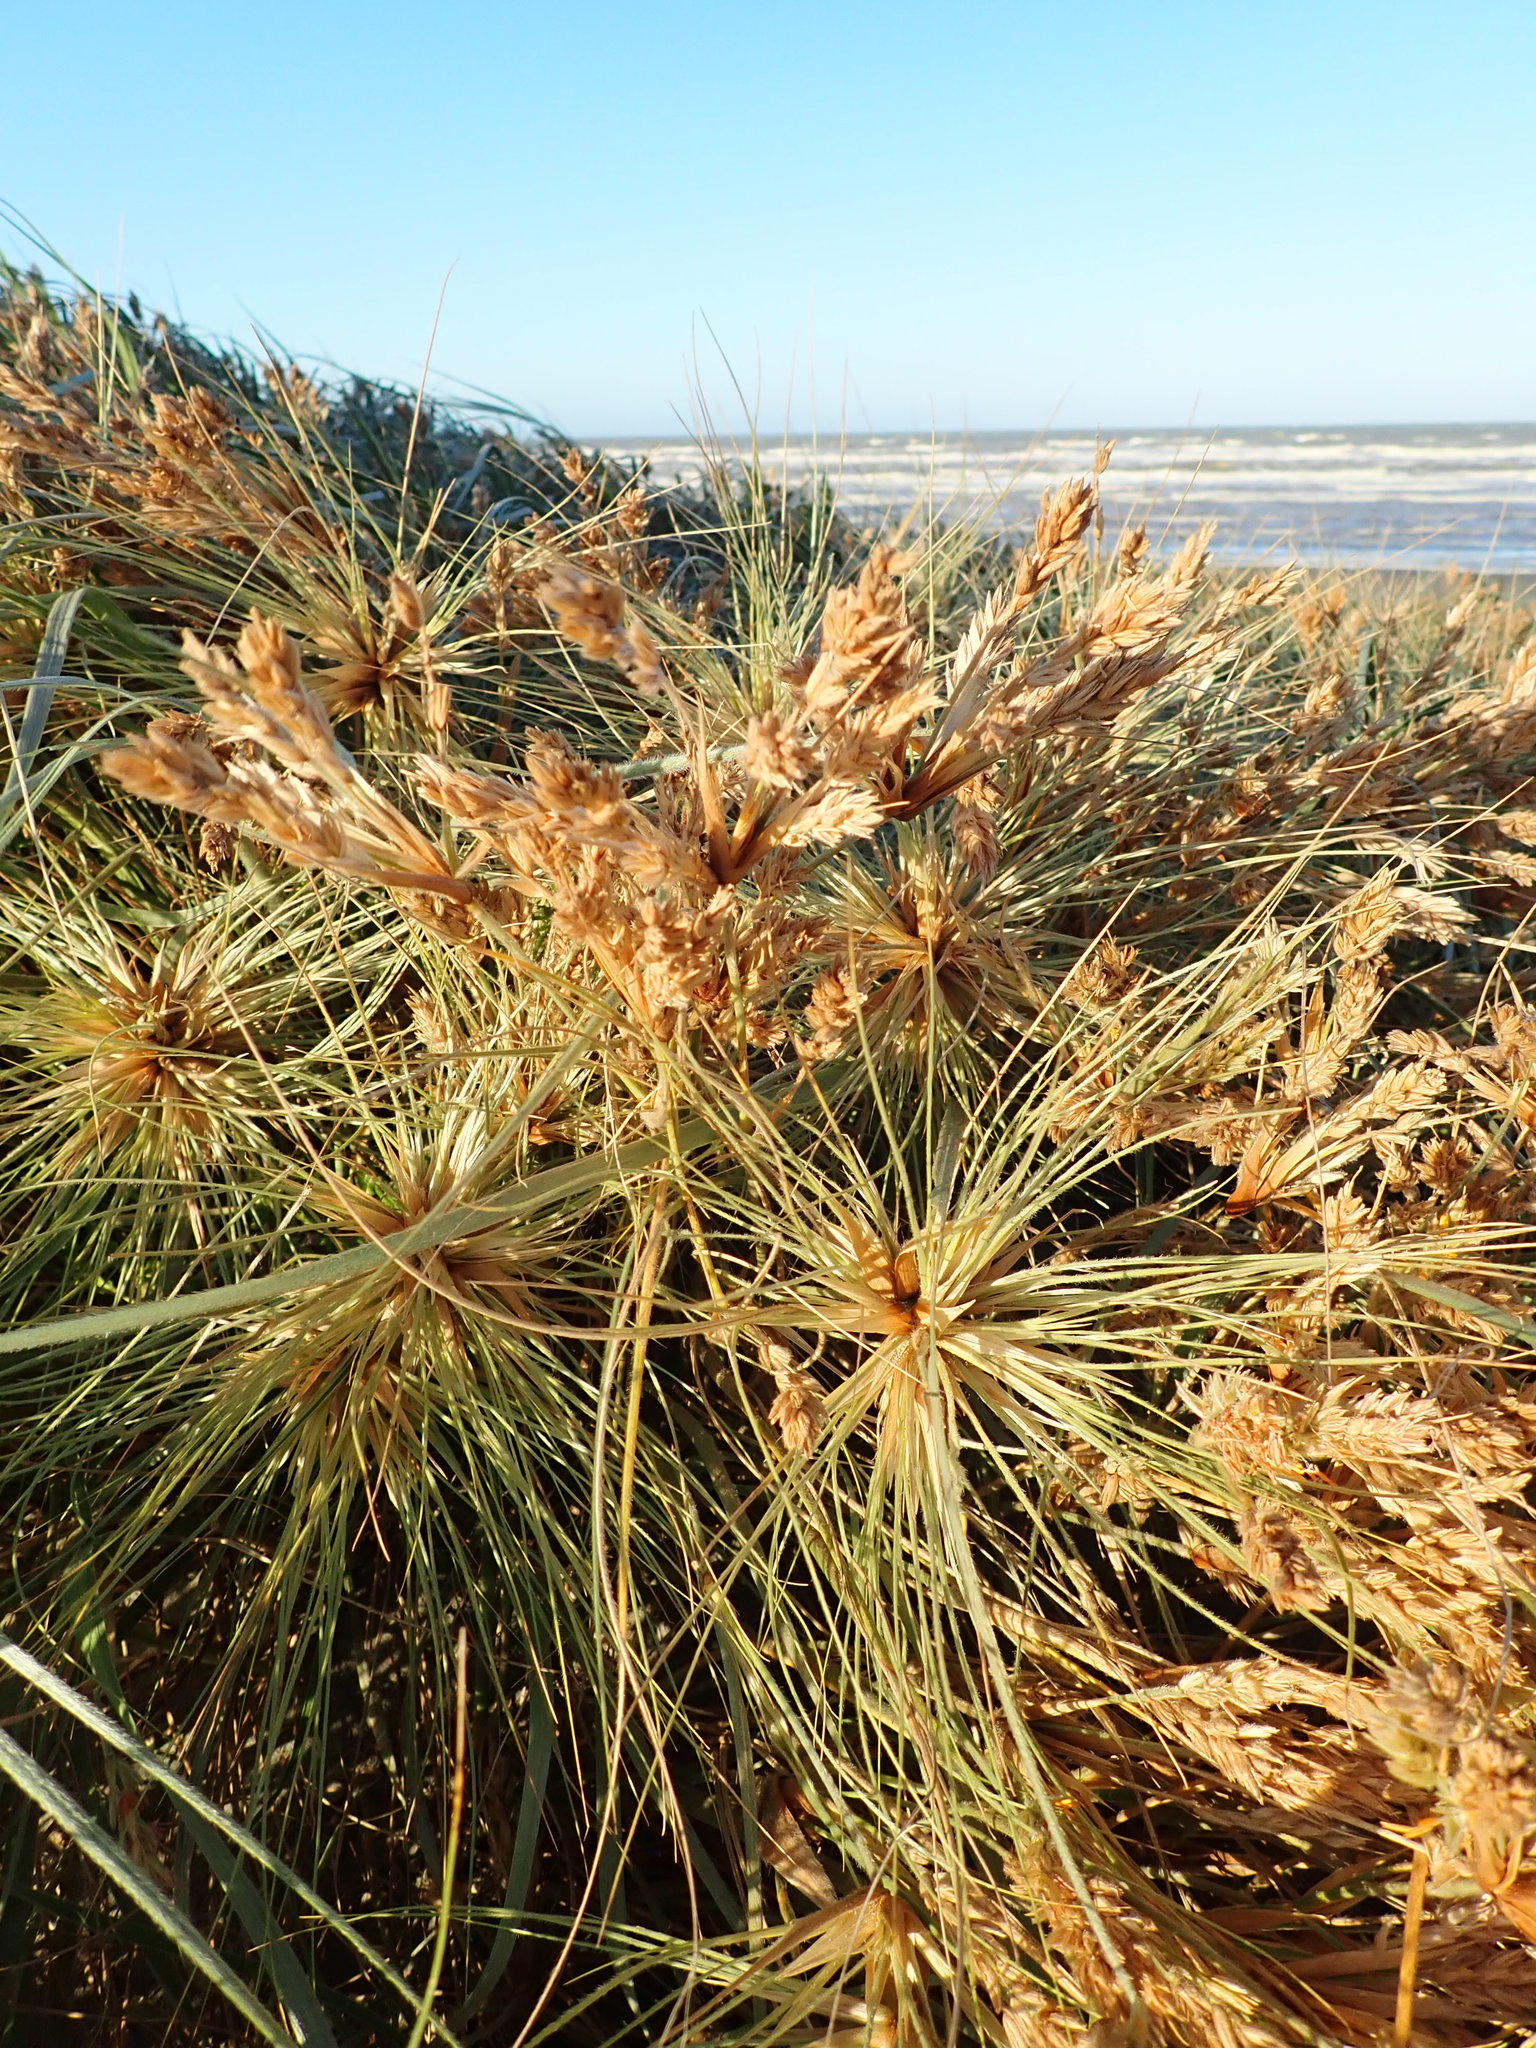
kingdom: Plantae
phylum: Tracheophyta
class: Liliopsida
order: Poales
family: Poaceae
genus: Spinifex
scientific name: Spinifex sericeus
